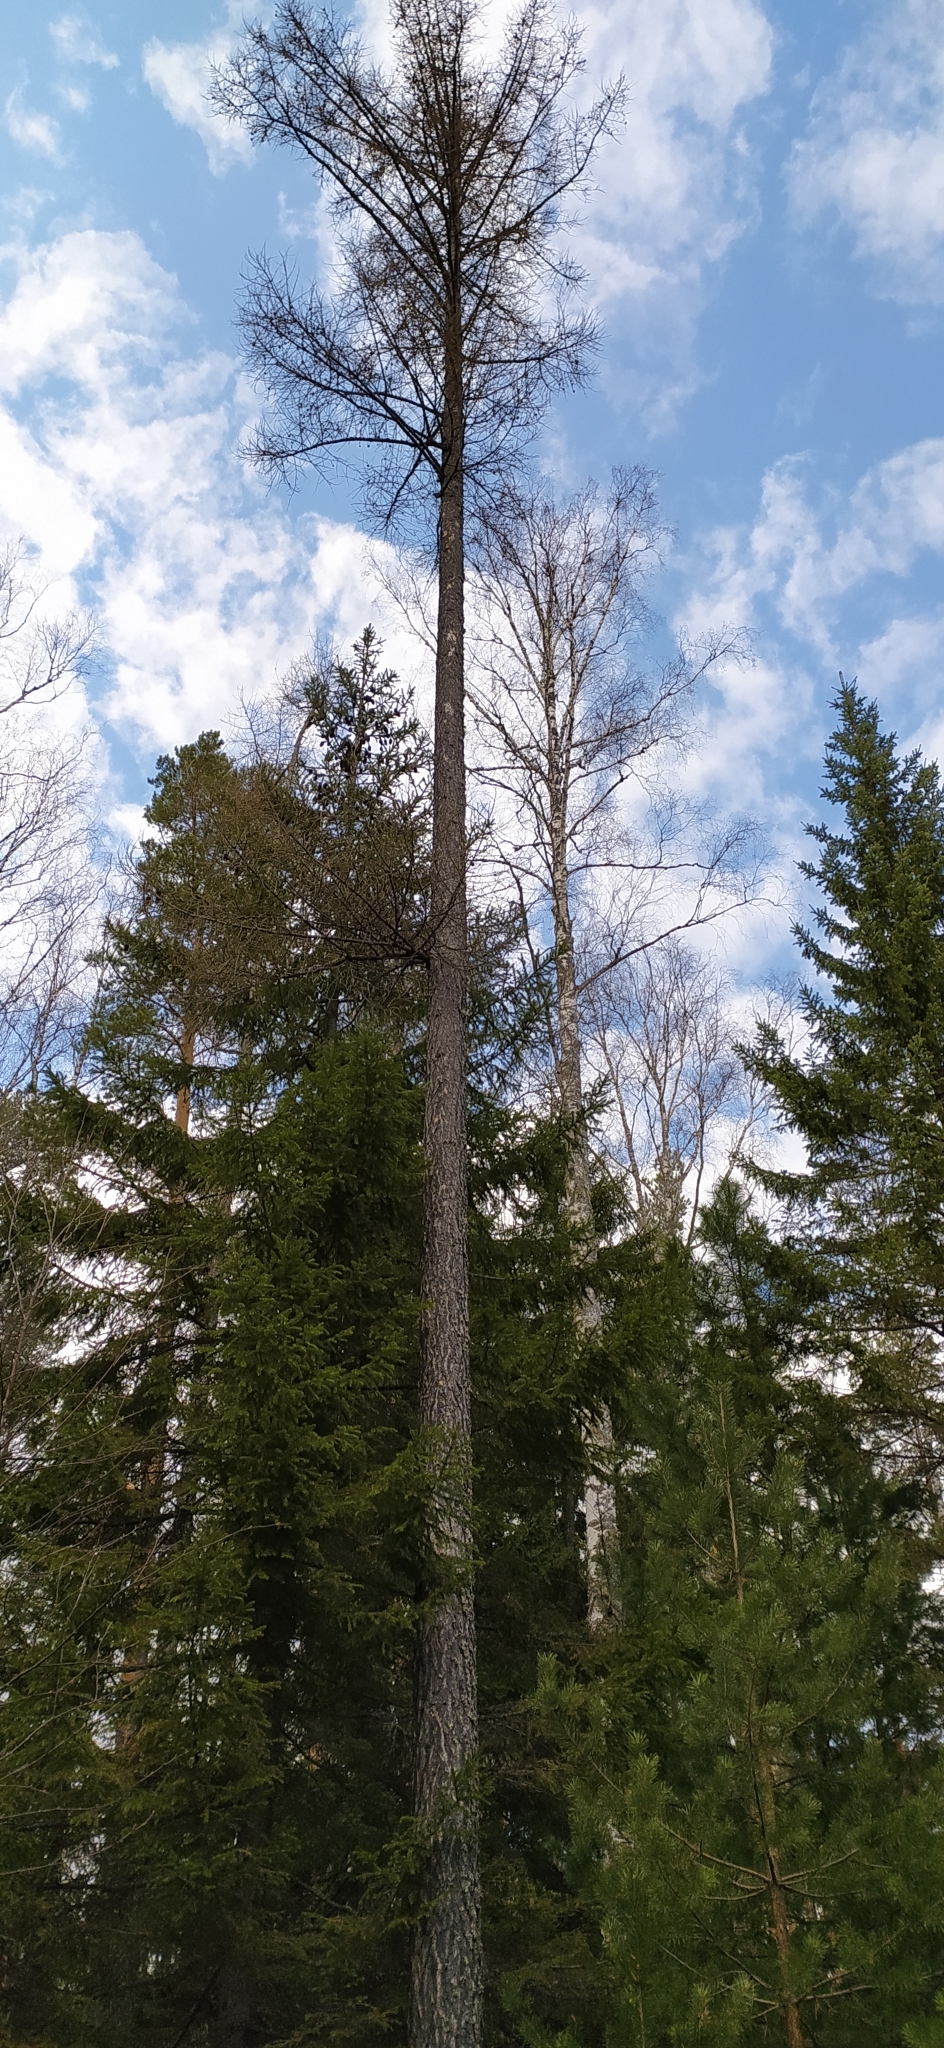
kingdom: Plantae
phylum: Tracheophyta
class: Pinopsida
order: Pinales
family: Pinaceae
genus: Larix
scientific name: Larix sibirica
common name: Siberian larch
